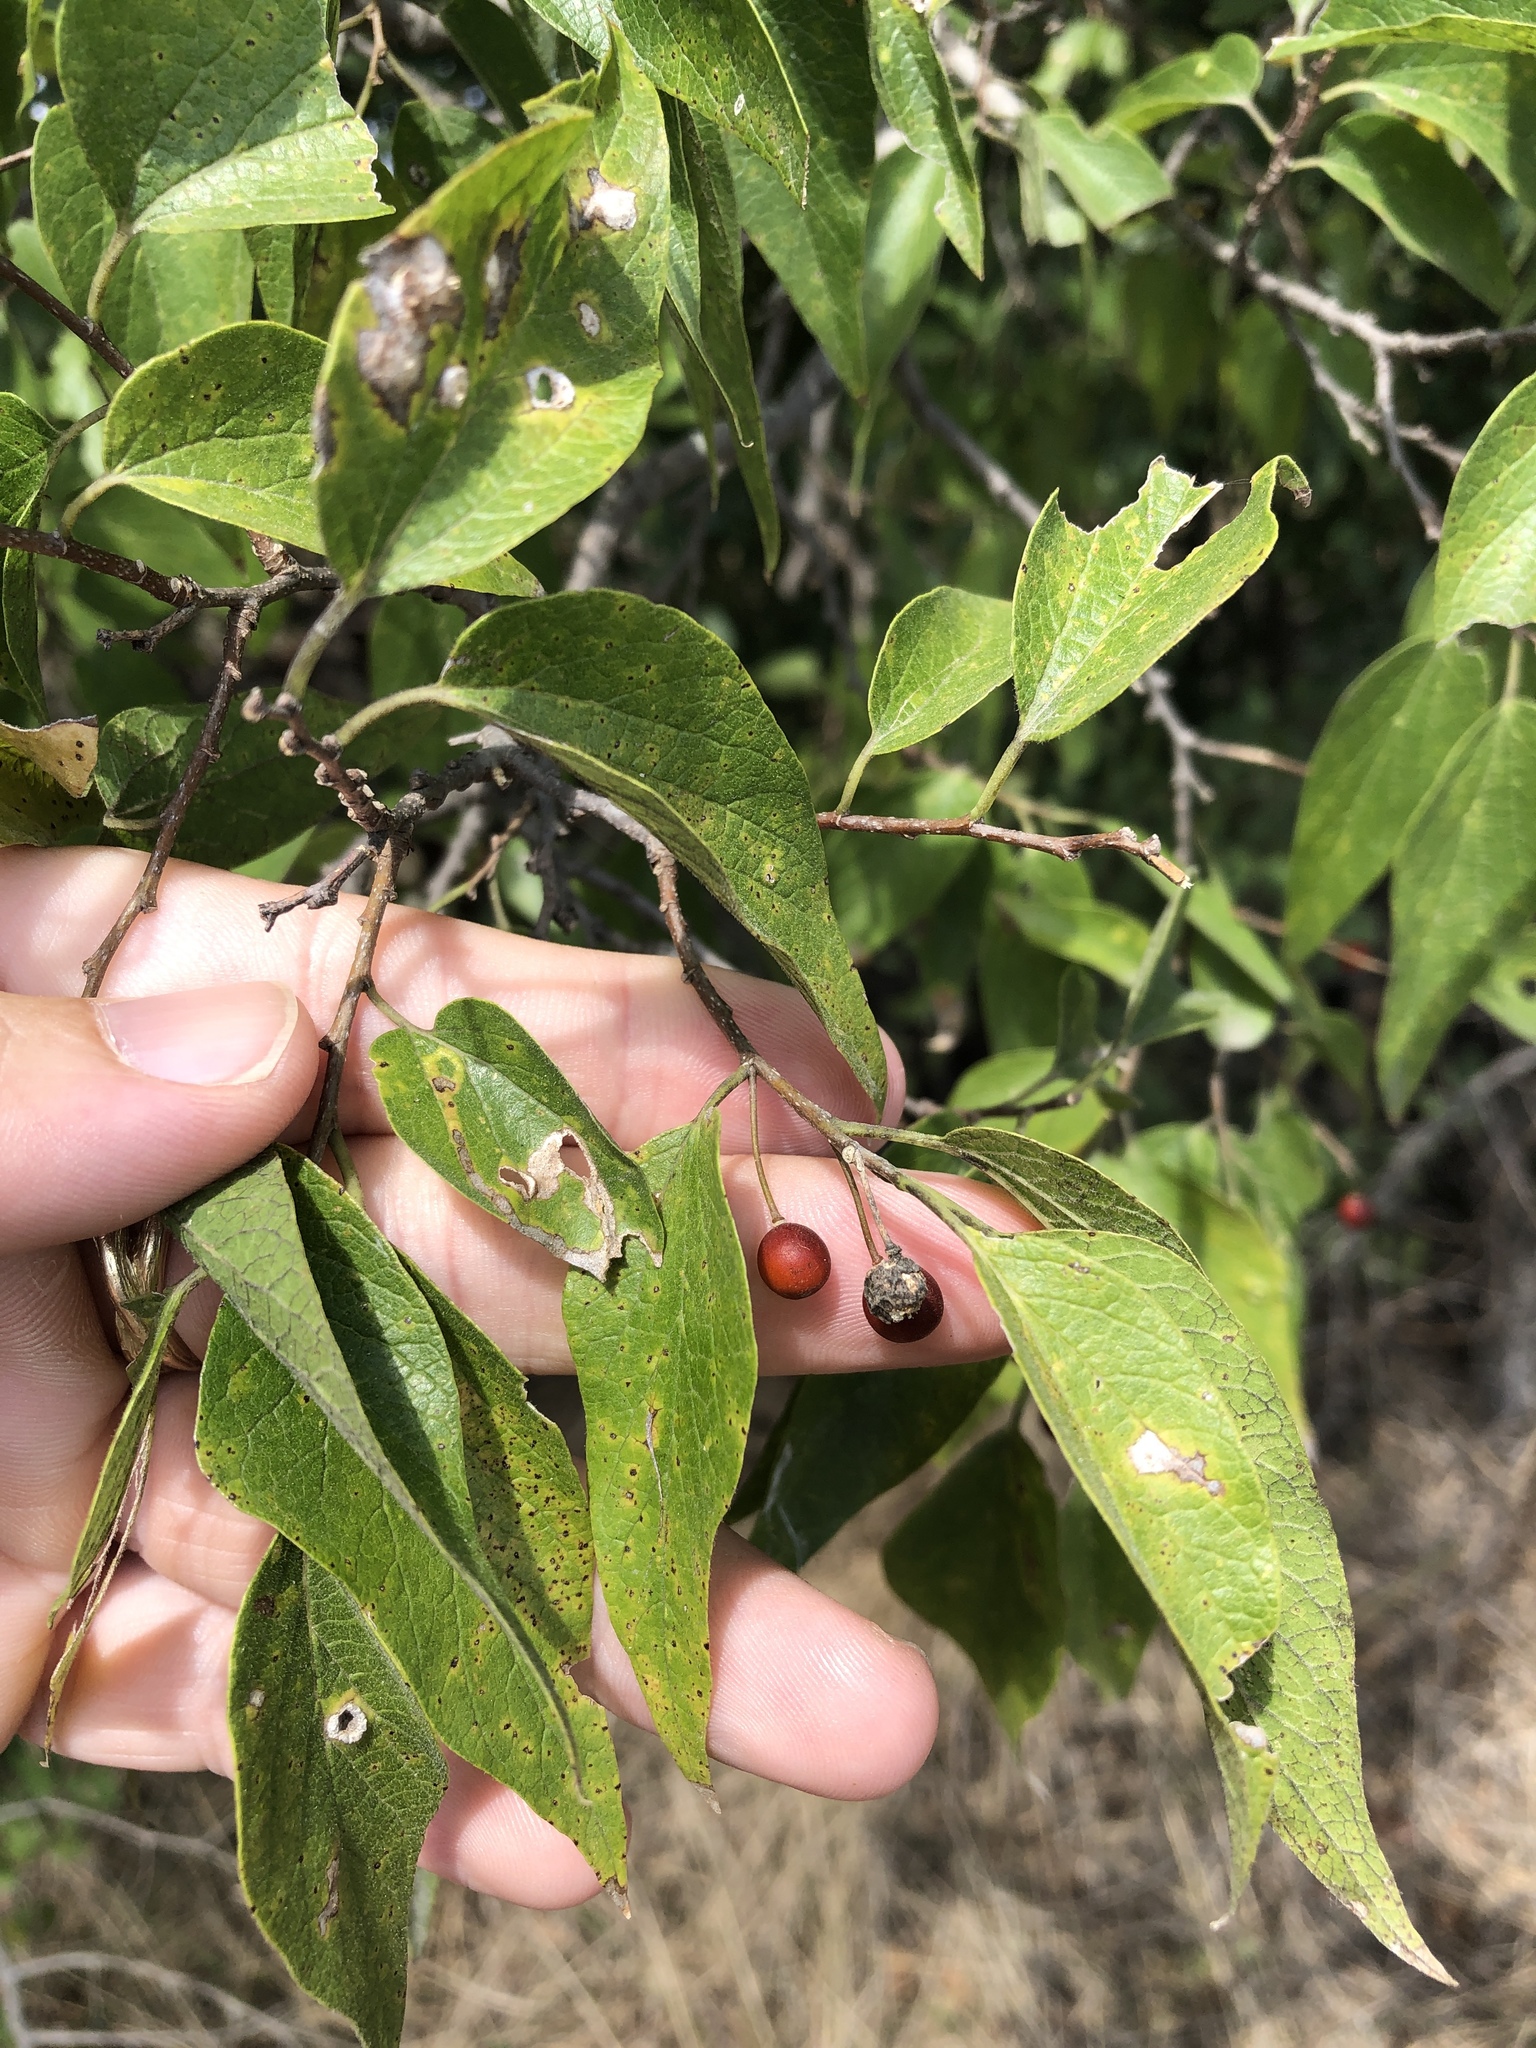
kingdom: Plantae
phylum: Tracheophyta
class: Magnoliopsida
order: Rosales
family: Cannabaceae
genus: Celtis
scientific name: Celtis laevigata
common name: Sugarberry
